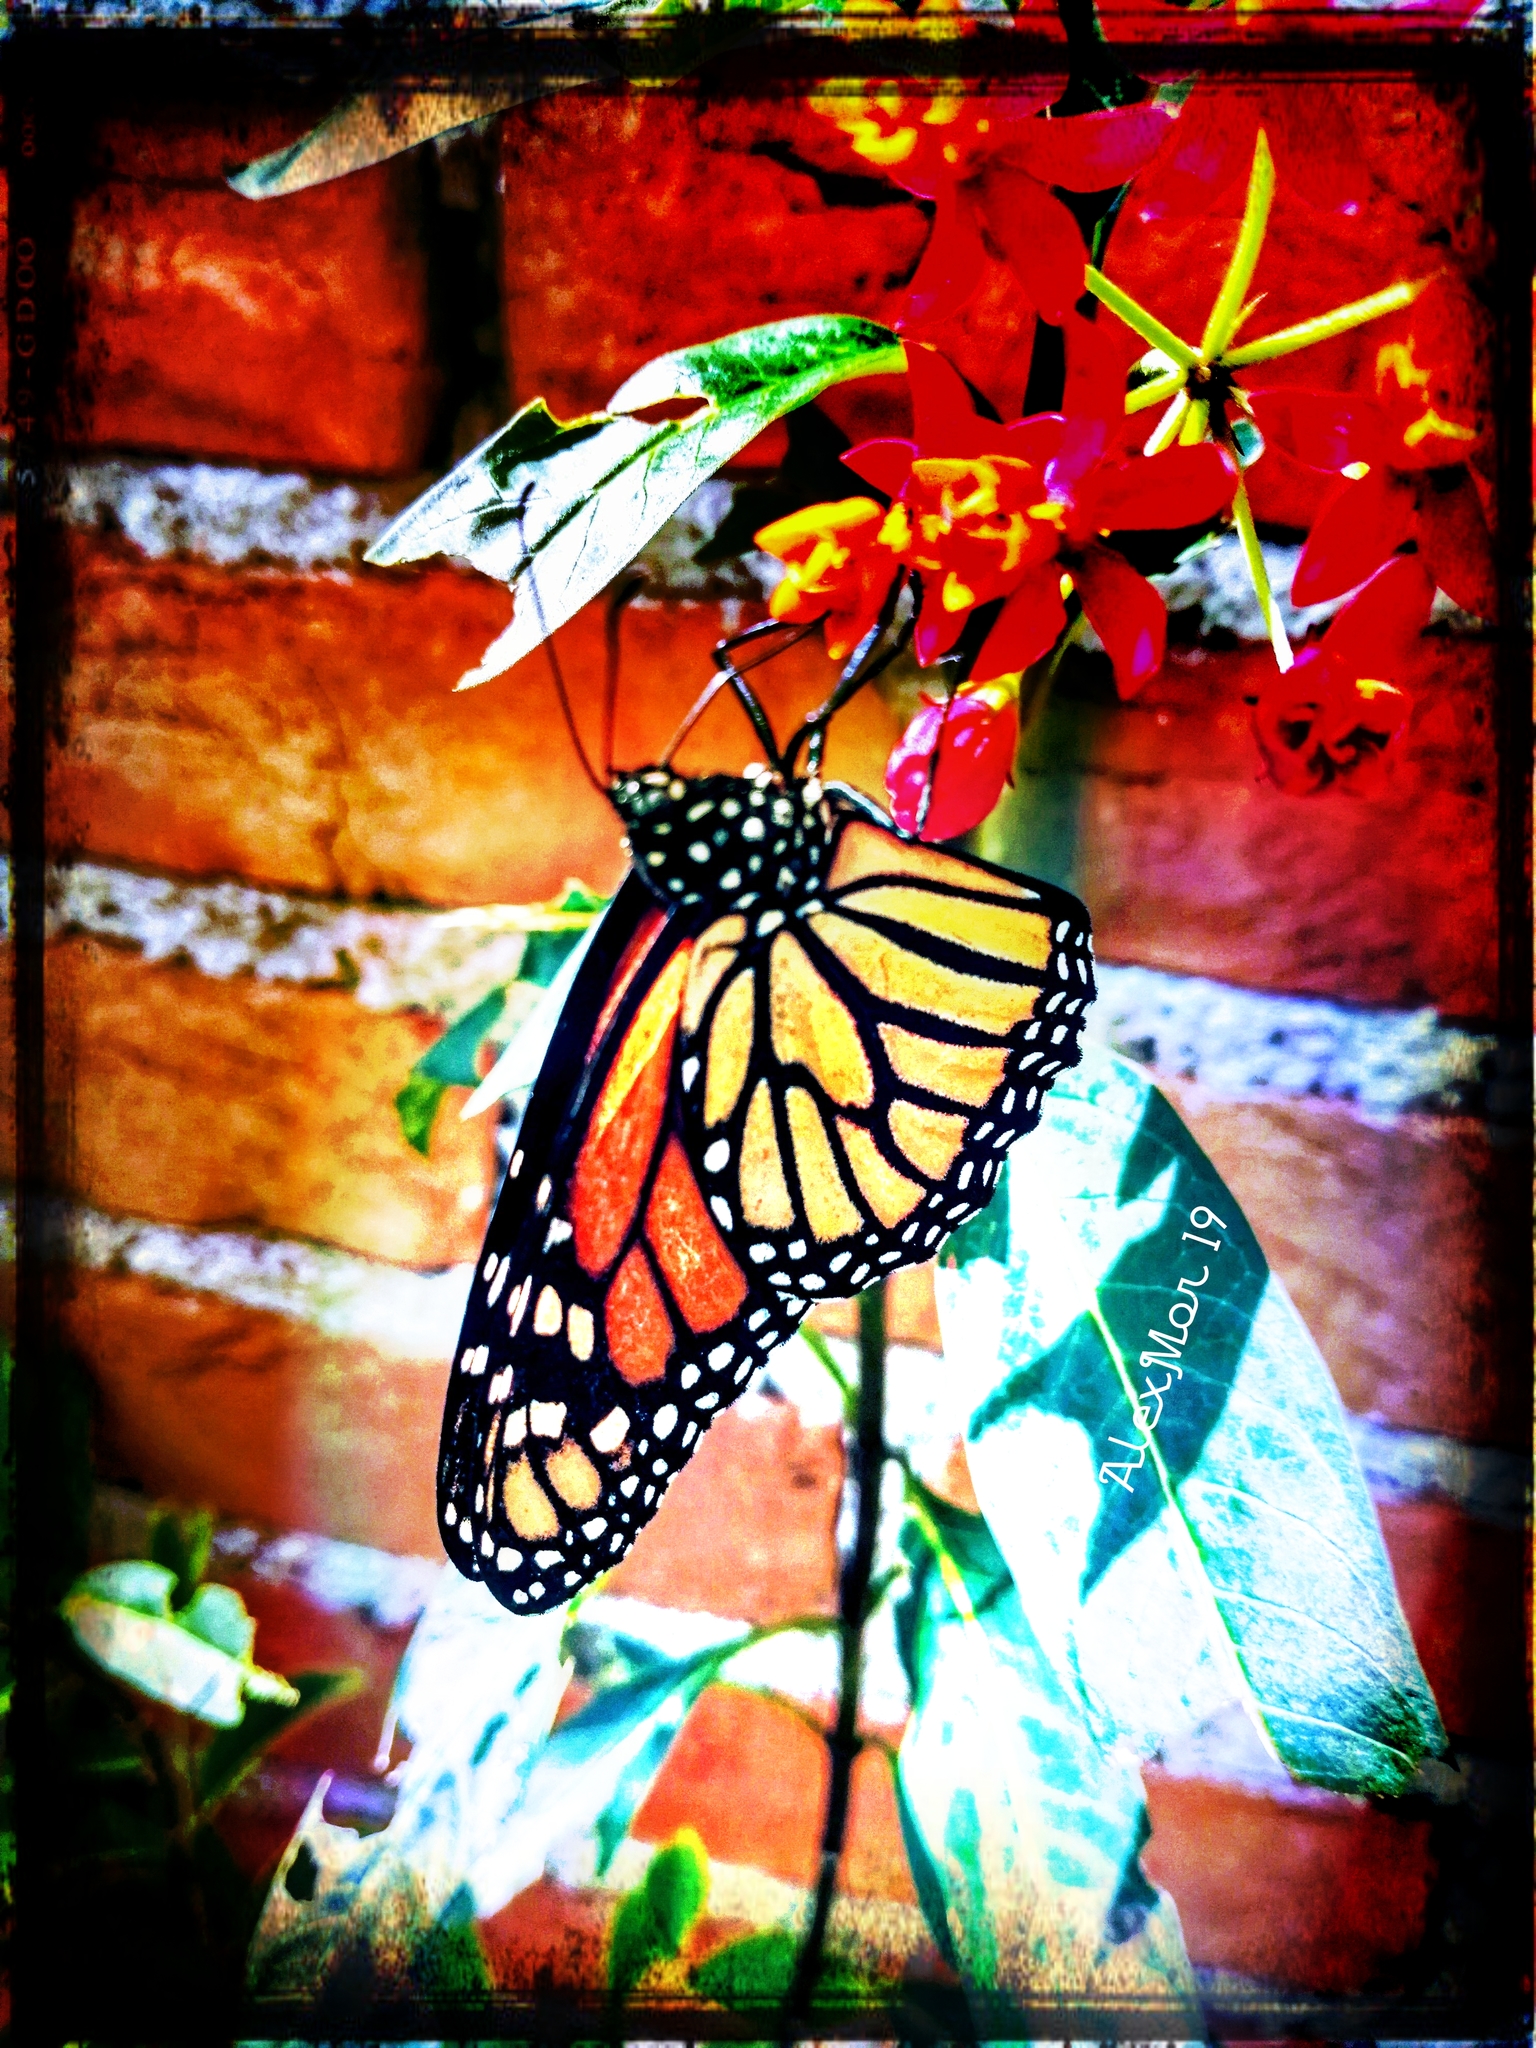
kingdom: Animalia
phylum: Arthropoda
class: Insecta
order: Lepidoptera
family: Nymphalidae
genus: Danaus
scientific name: Danaus plexippus
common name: Monarch
